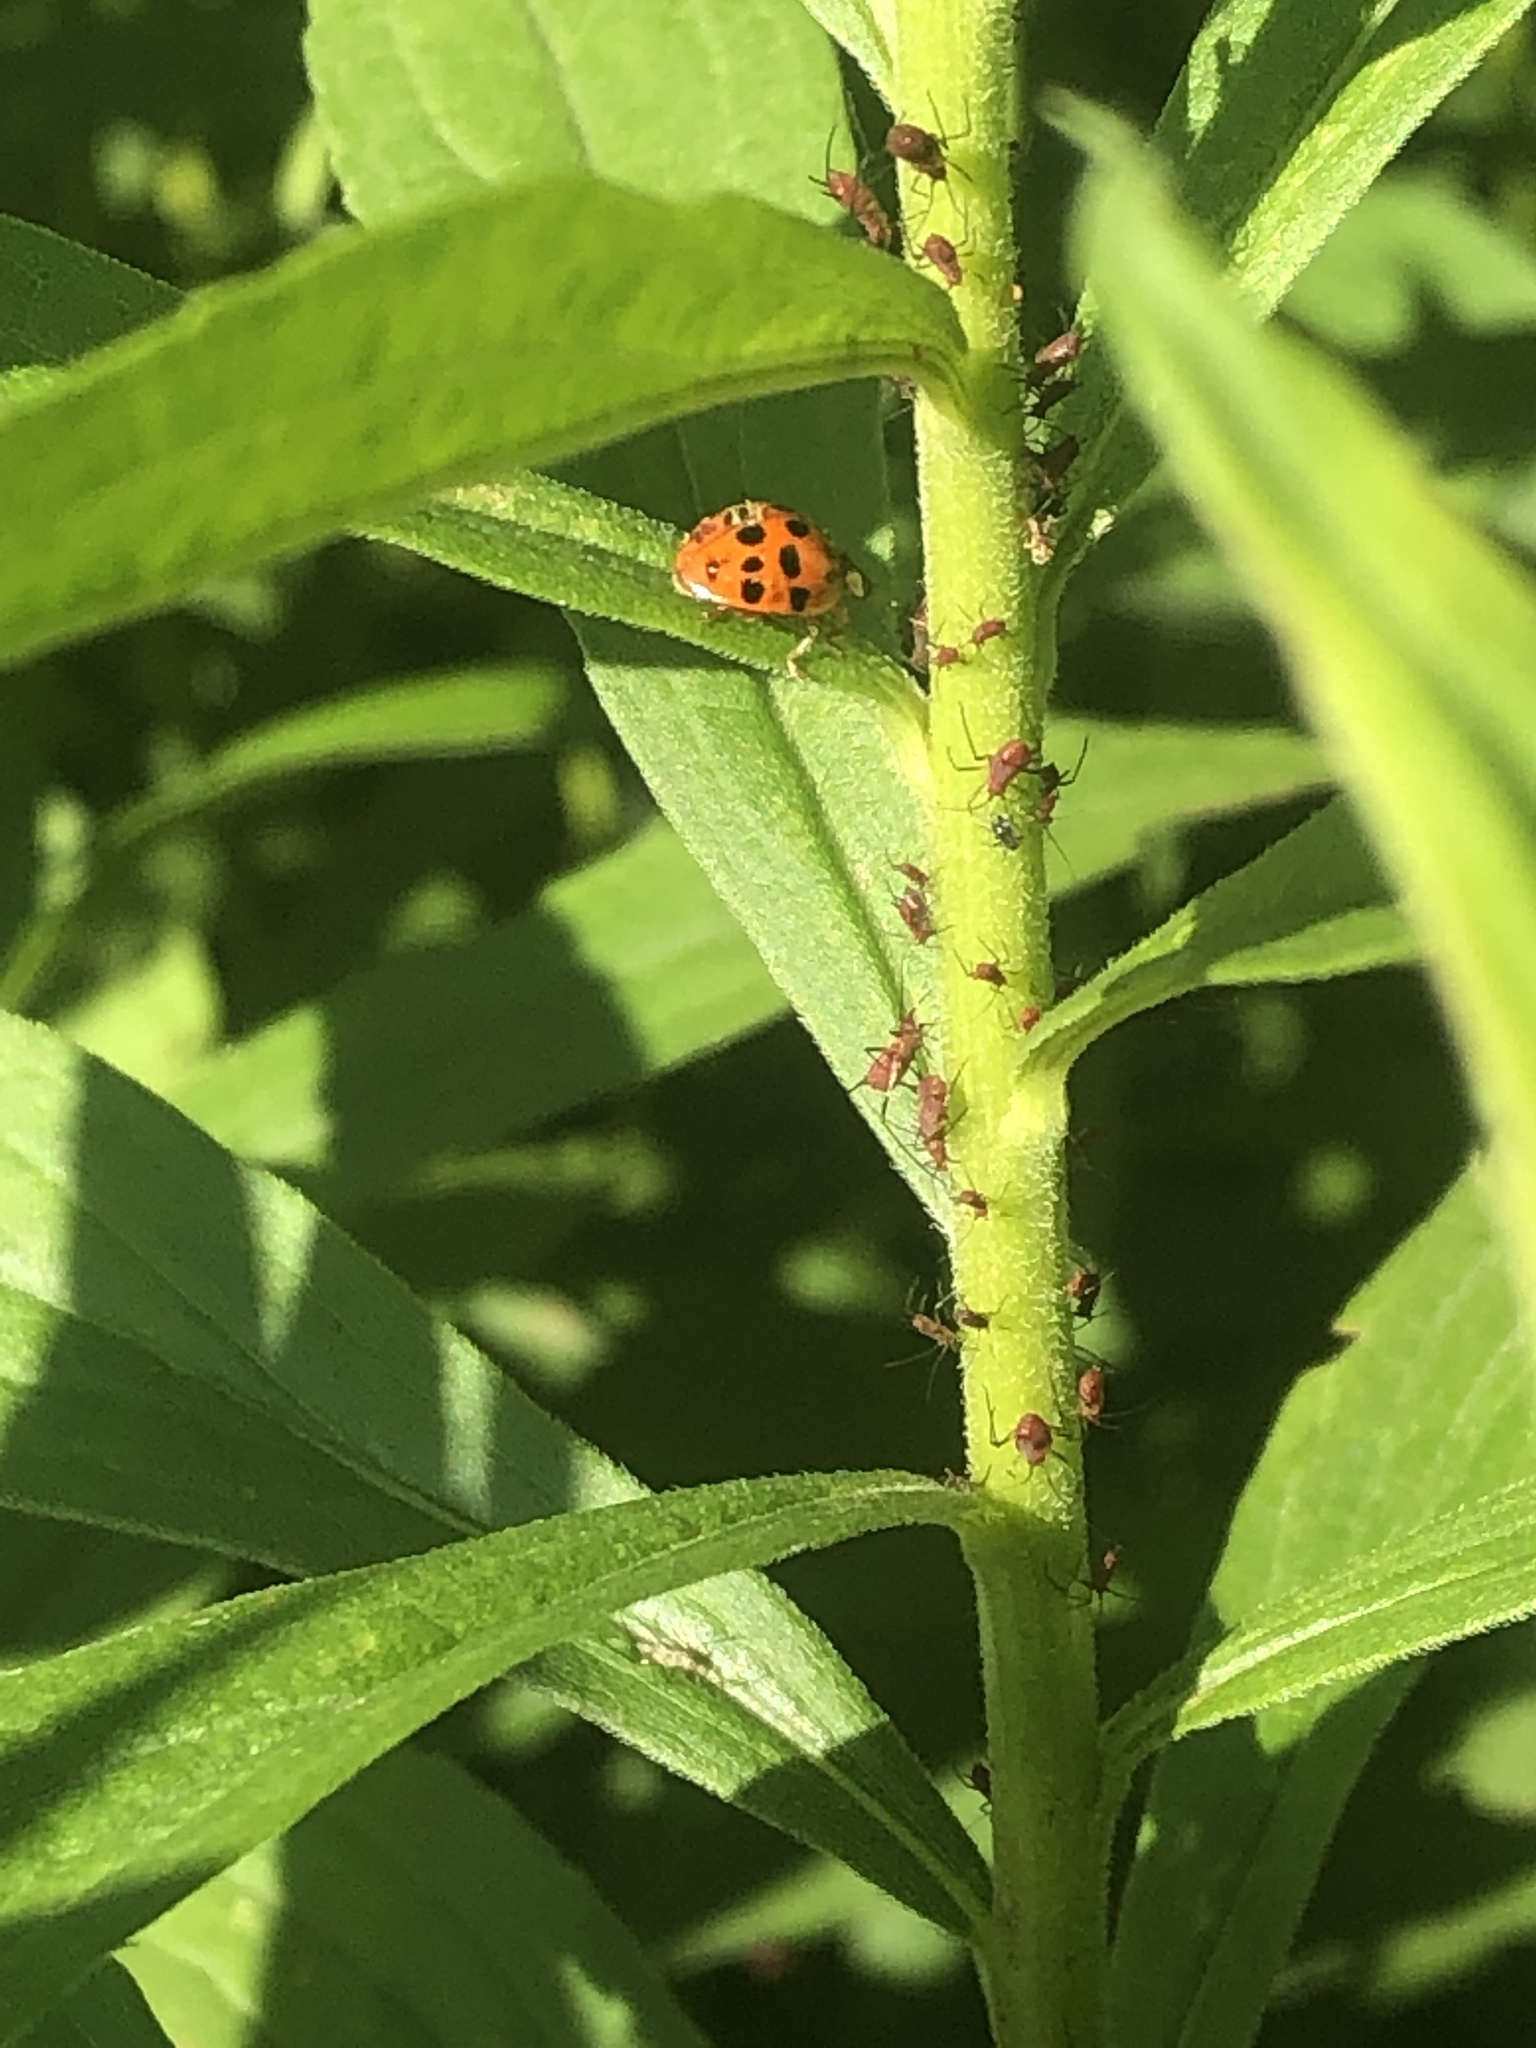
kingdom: Animalia
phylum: Arthropoda
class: Insecta
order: Coleoptera
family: Coccinellidae
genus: Harmonia
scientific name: Harmonia axyridis
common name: Harlequin ladybird
